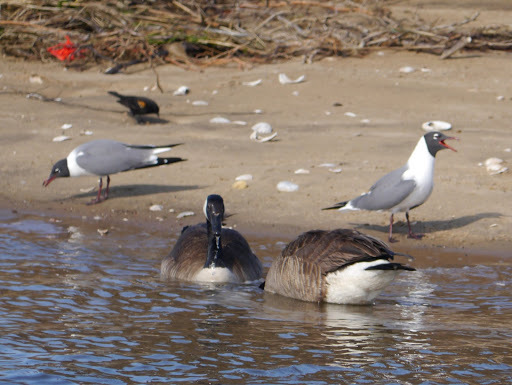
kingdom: Animalia
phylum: Chordata
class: Aves
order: Anseriformes
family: Anatidae
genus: Branta
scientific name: Branta canadensis
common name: Canada goose
